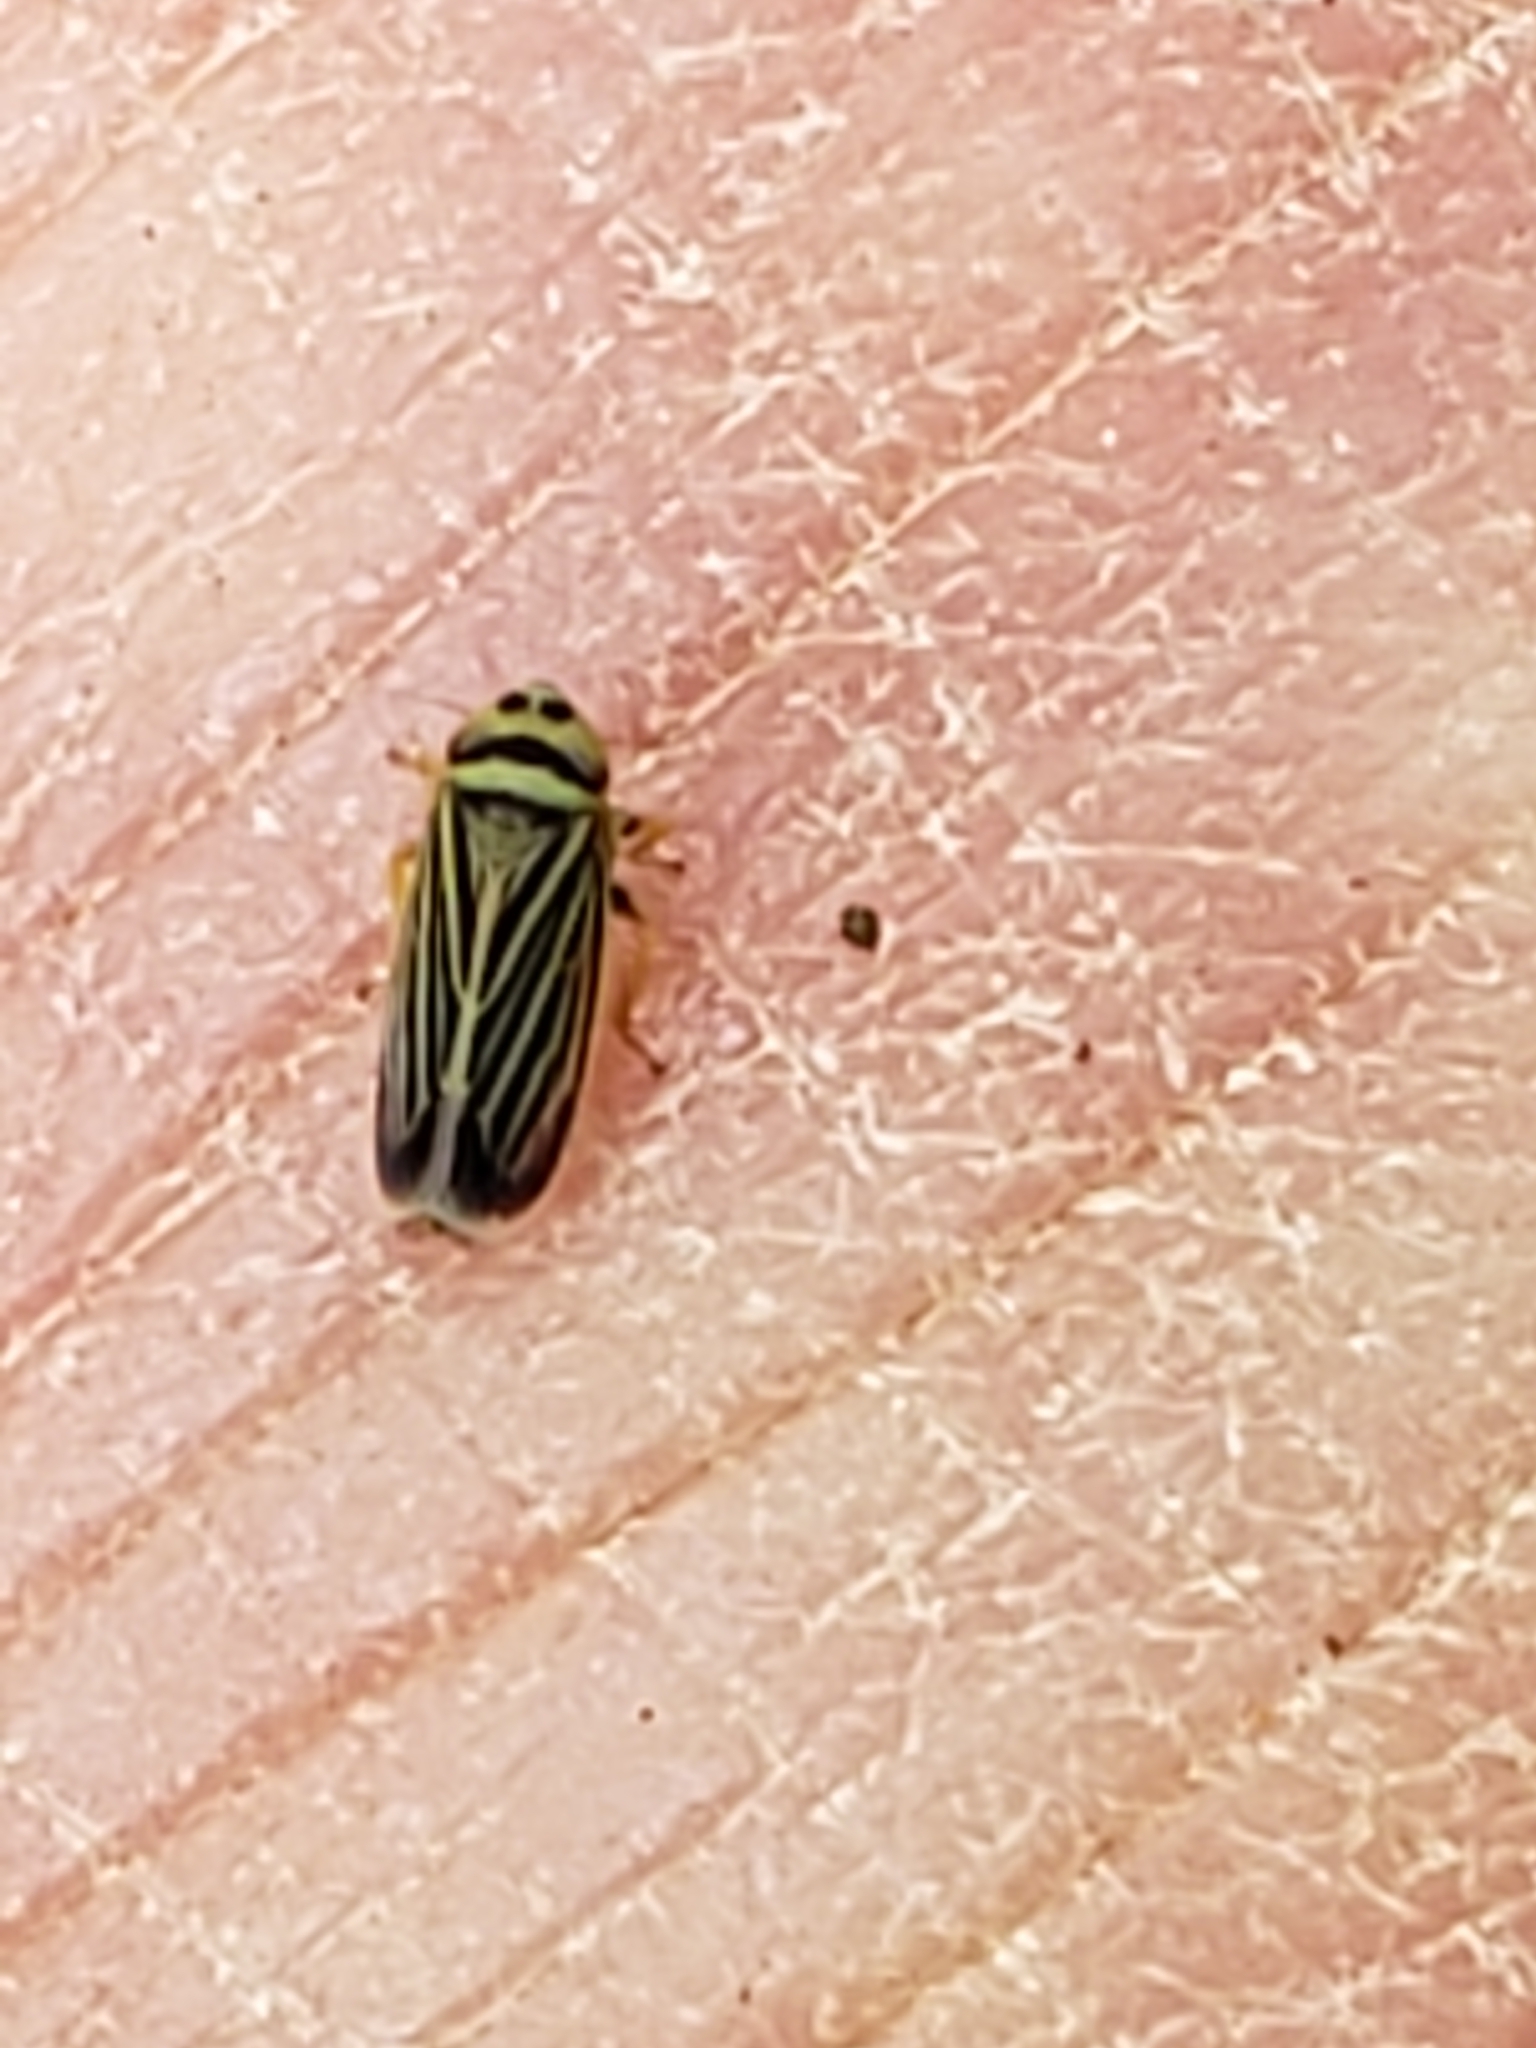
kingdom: Animalia
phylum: Arthropoda
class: Insecta
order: Hemiptera
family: Cicadellidae
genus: Amblysellus
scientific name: Amblysellus curtisii
